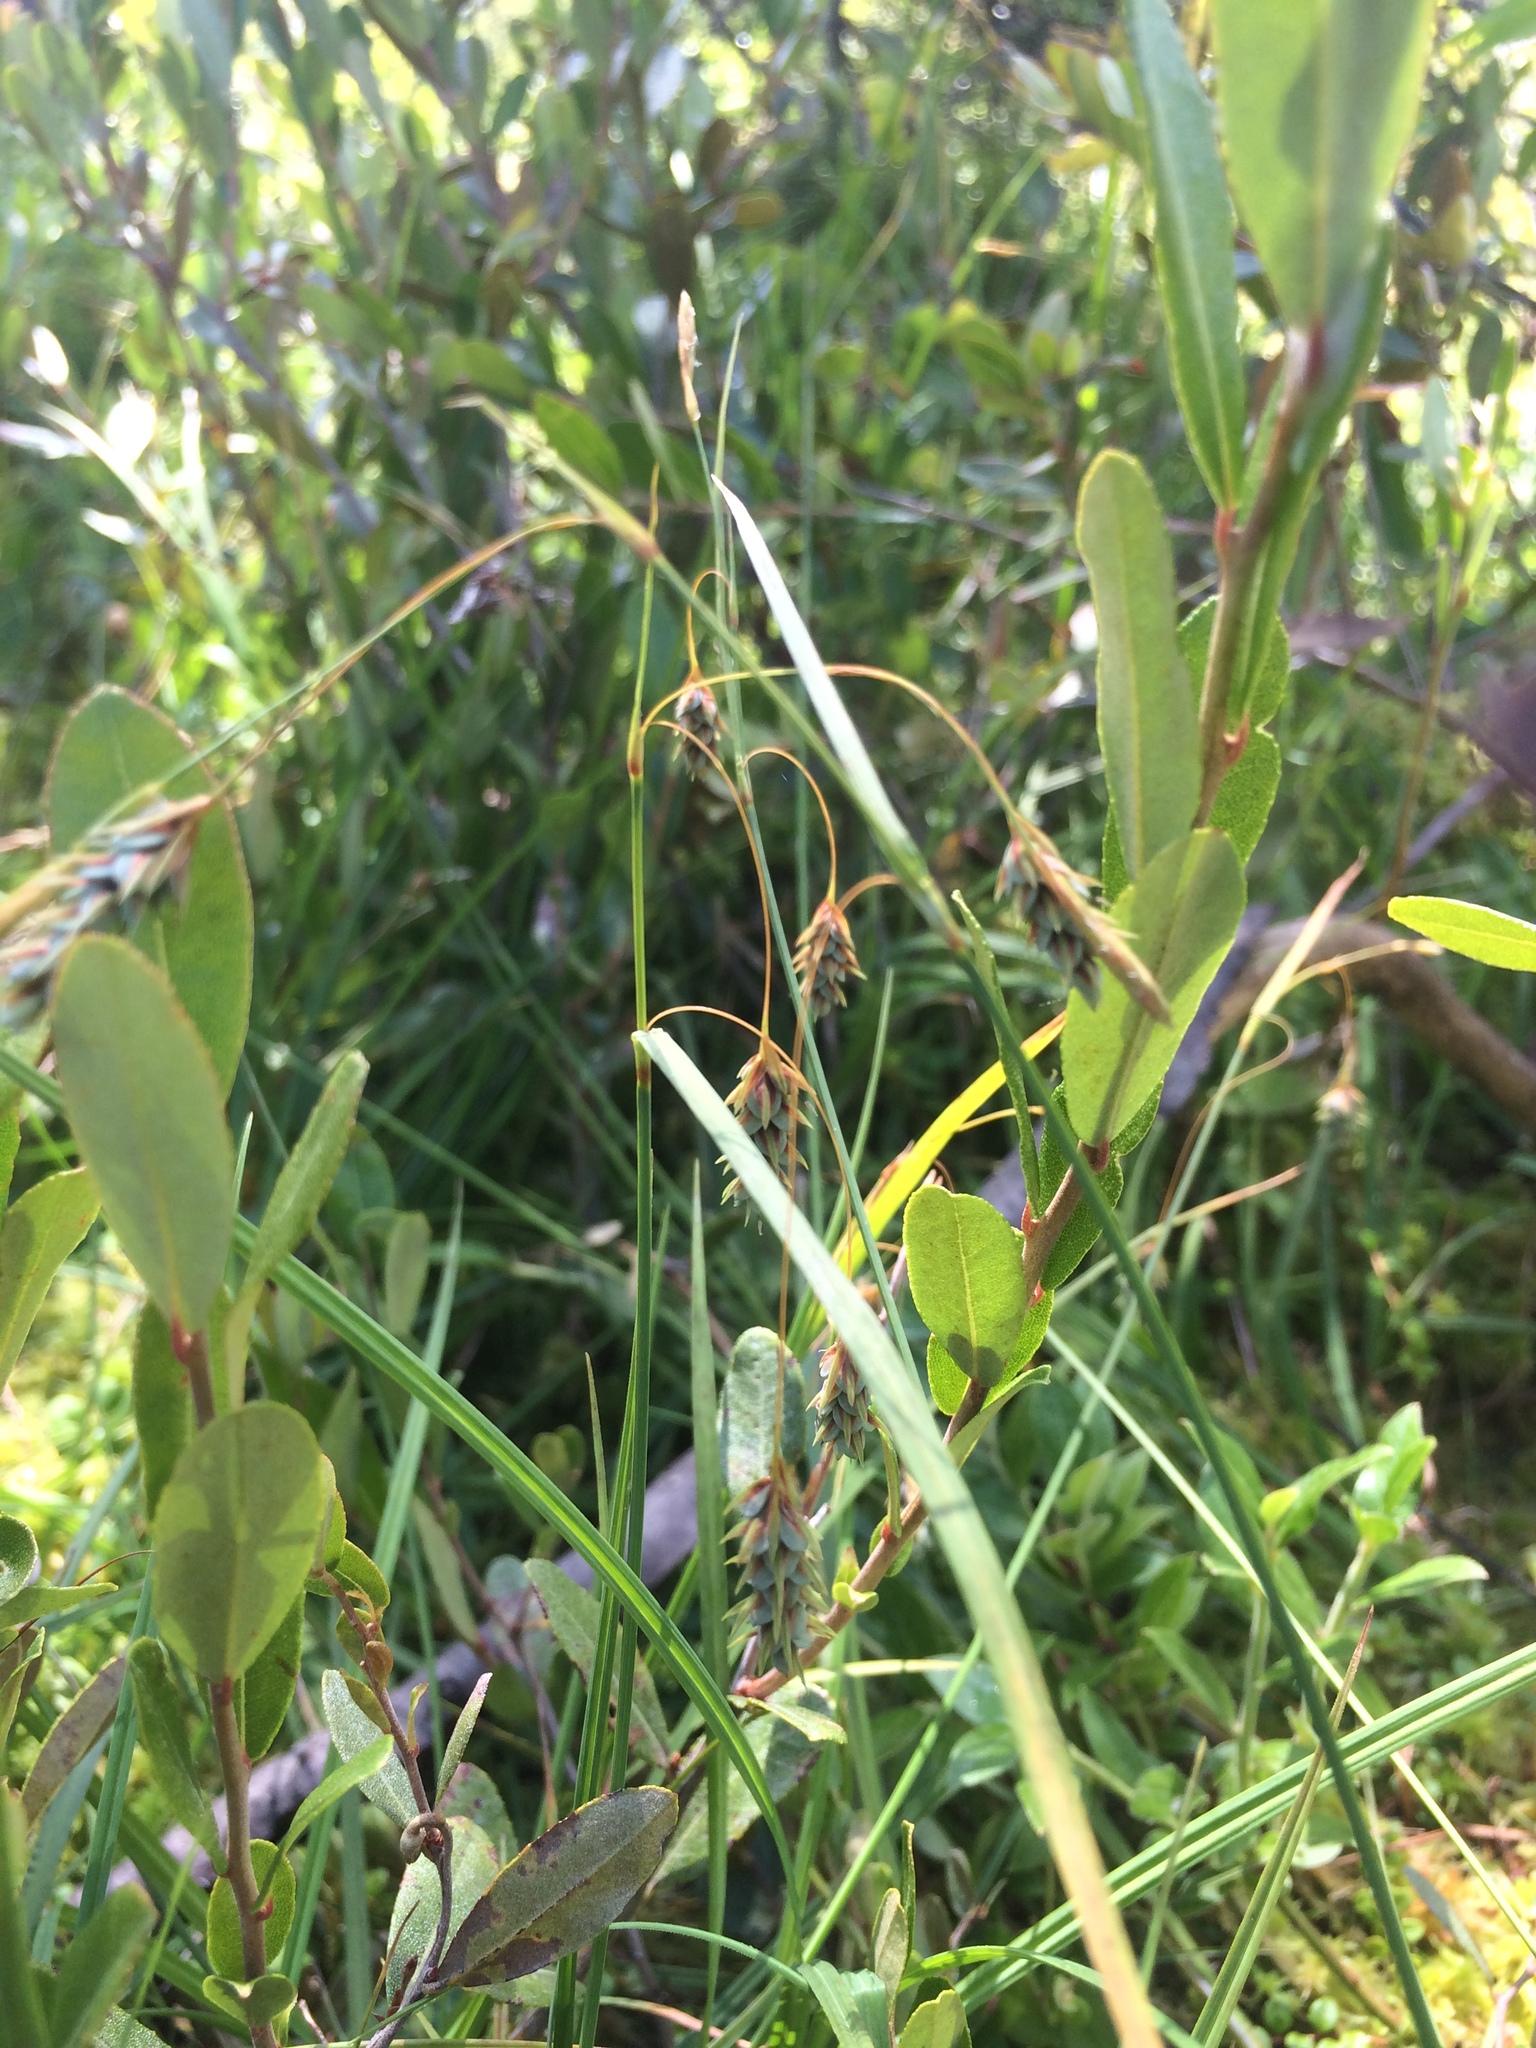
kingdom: Plantae
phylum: Tracheophyta
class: Liliopsida
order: Poales
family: Cyperaceae
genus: Carex
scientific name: Carex magellanica
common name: Bog sedge
